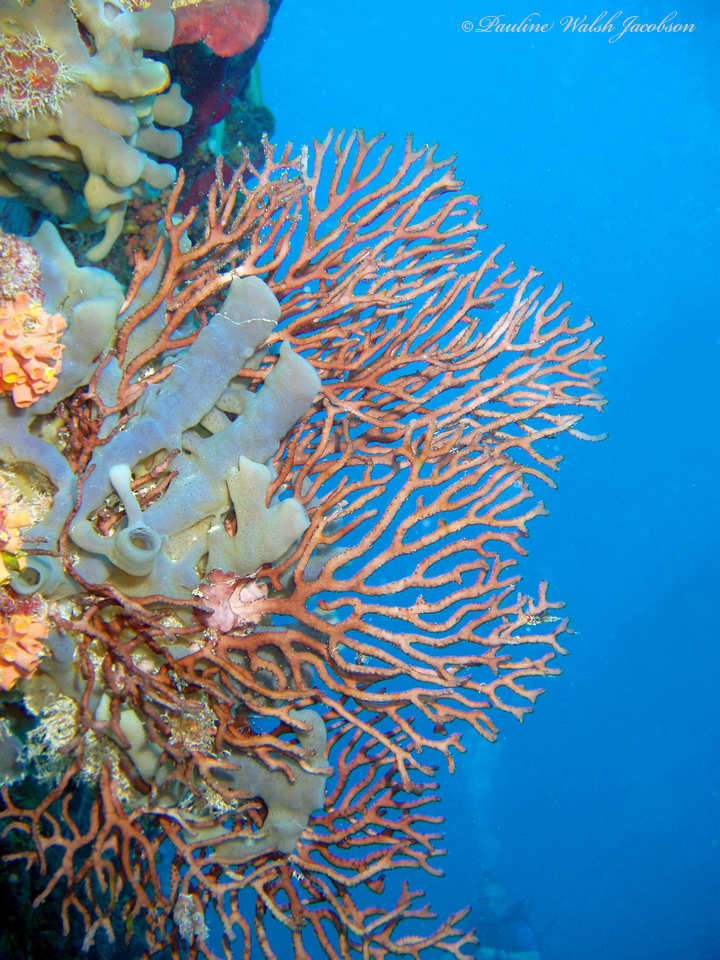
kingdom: Animalia
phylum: Cnidaria
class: Anthozoa
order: Malacalcyonacea
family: Melithaeidae
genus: Iciligorgia
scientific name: Iciligorgia schrammi
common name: Black sea fan
